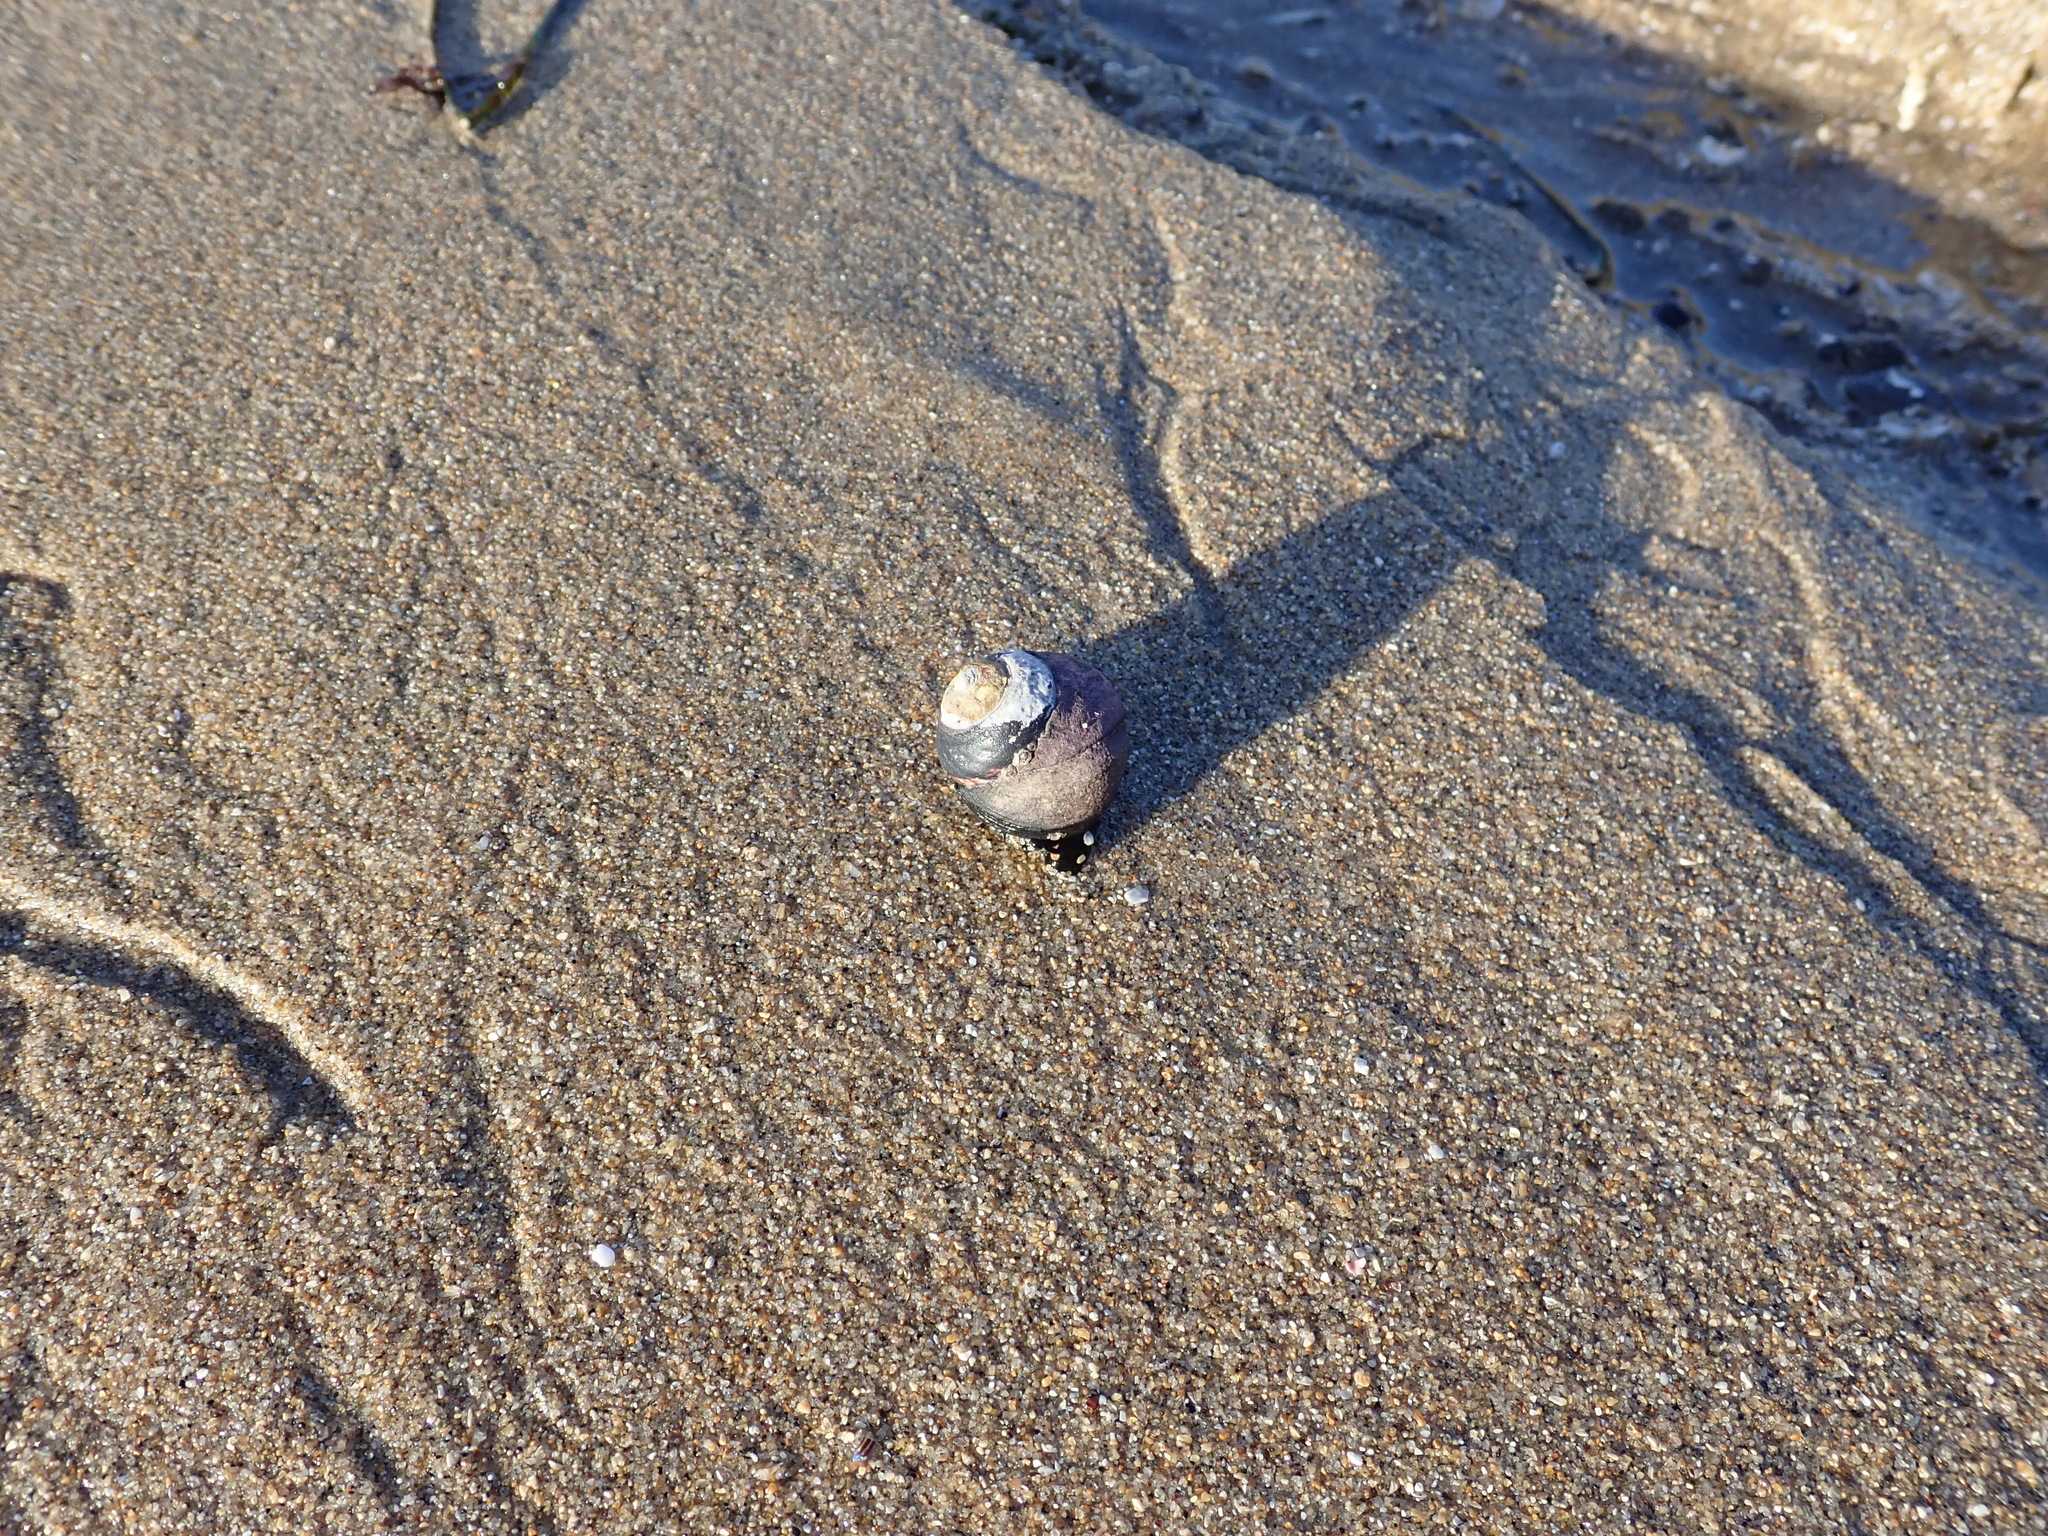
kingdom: Animalia
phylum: Mollusca
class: Gastropoda
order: Trochida
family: Tegulidae
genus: Tegula
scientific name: Tegula funebralis
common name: Black tegula
